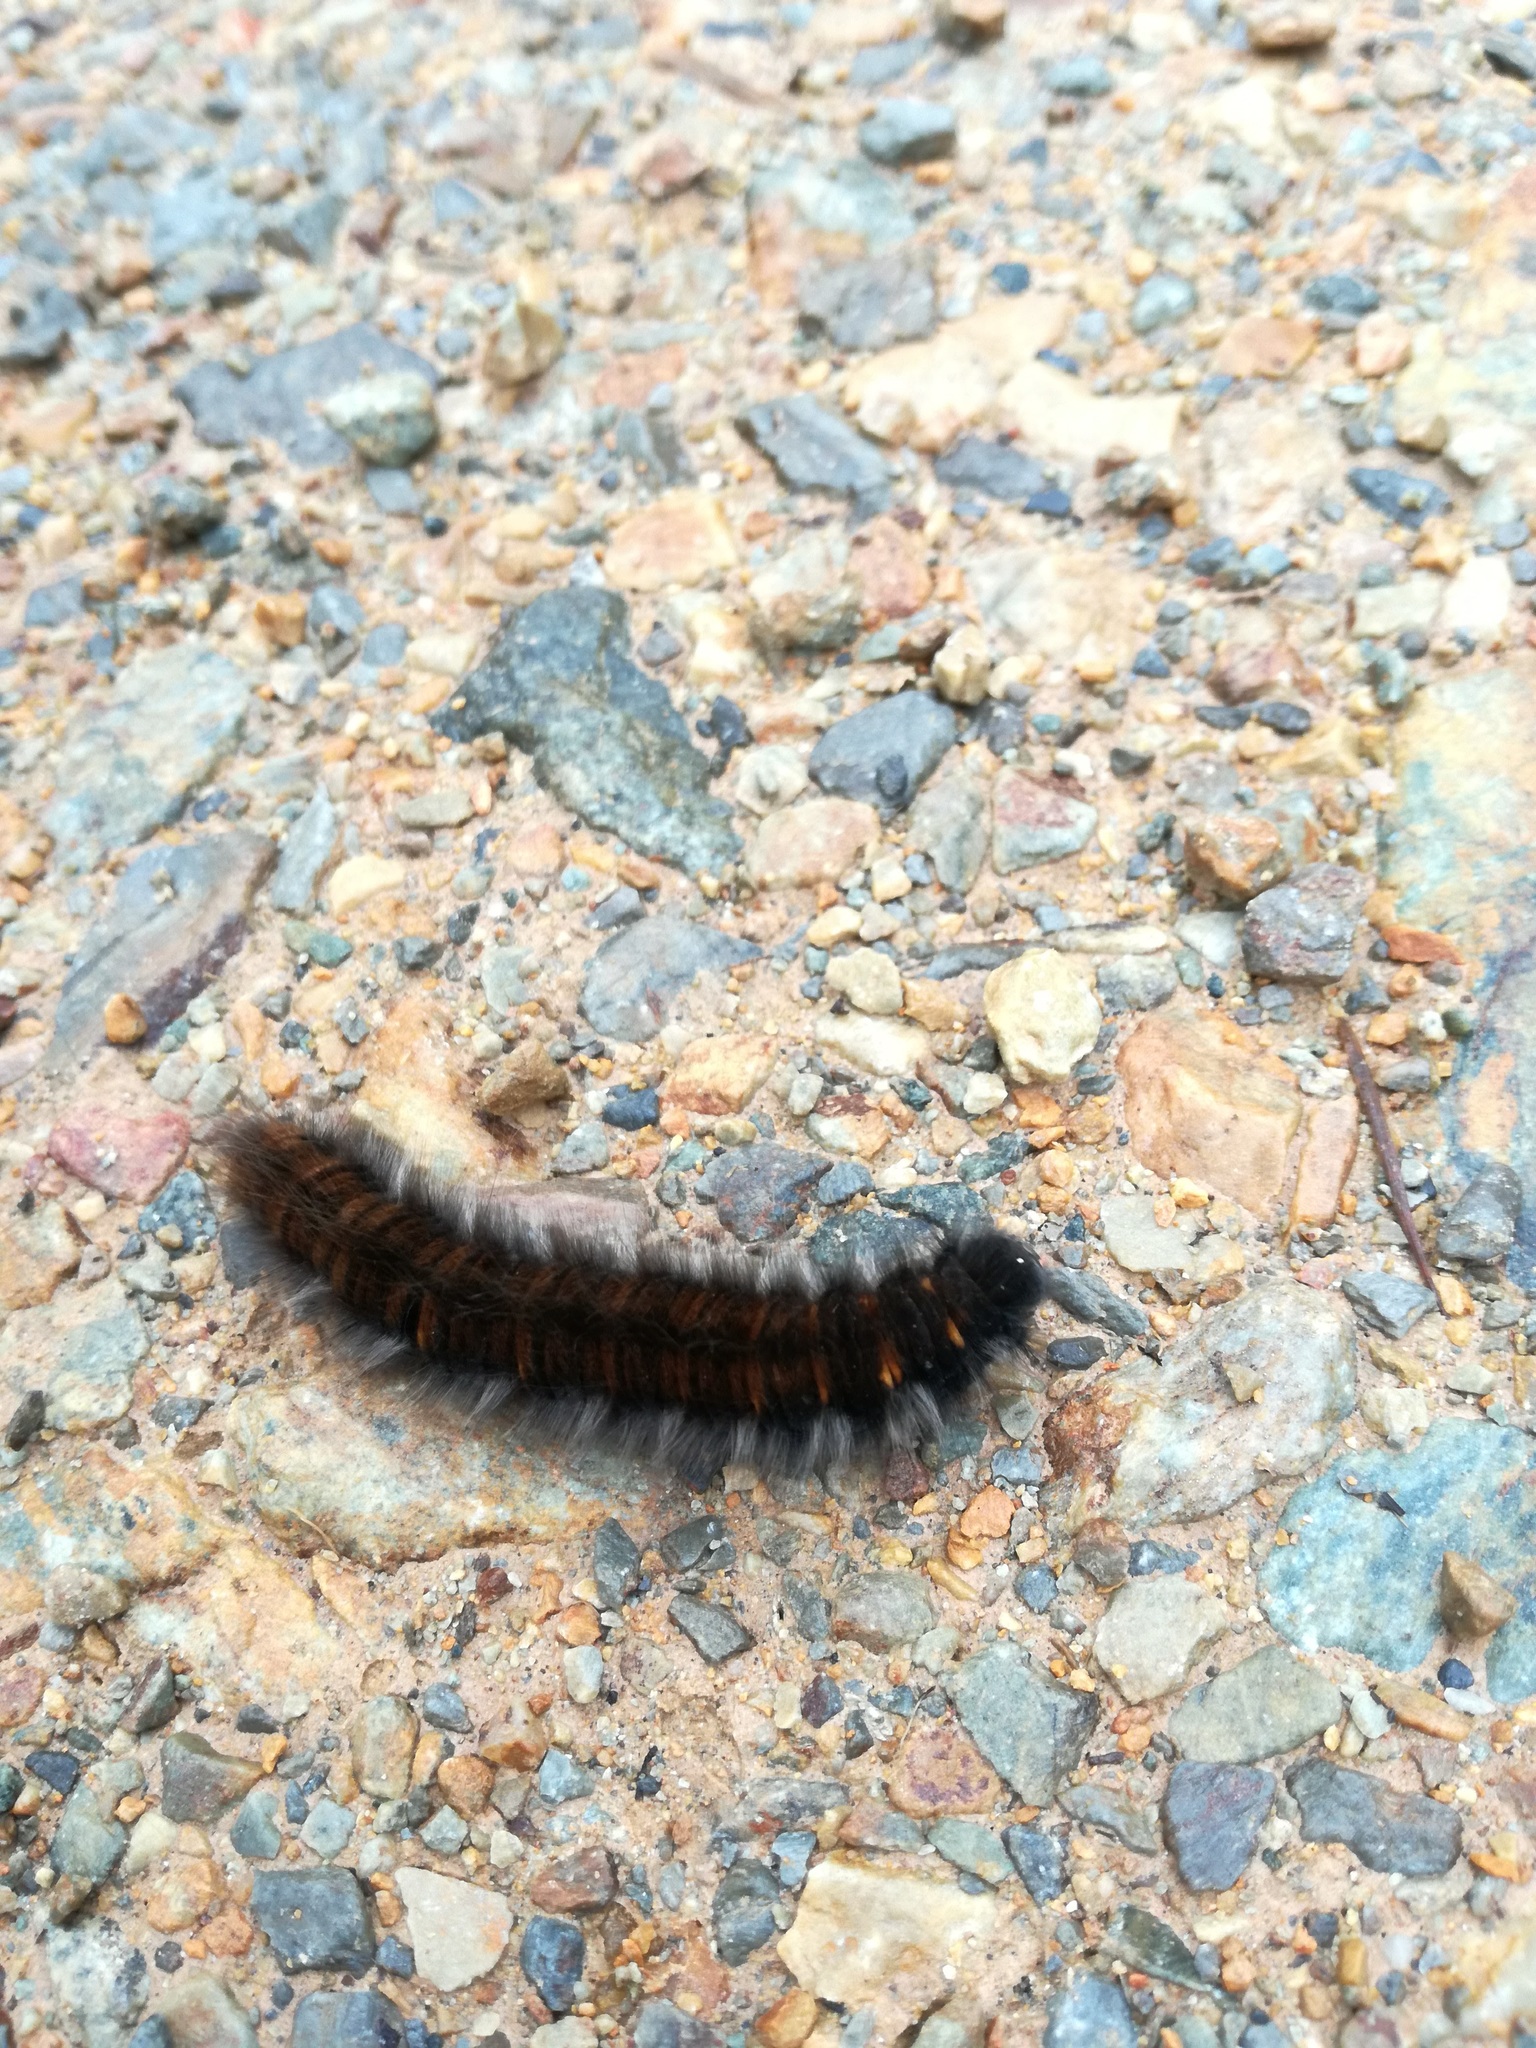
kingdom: Animalia
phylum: Arthropoda
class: Insecta
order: Lepidoptera
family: Lasiocampidae
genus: Macrothylacia
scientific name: Macrothylacia rubi
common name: Fox moth
